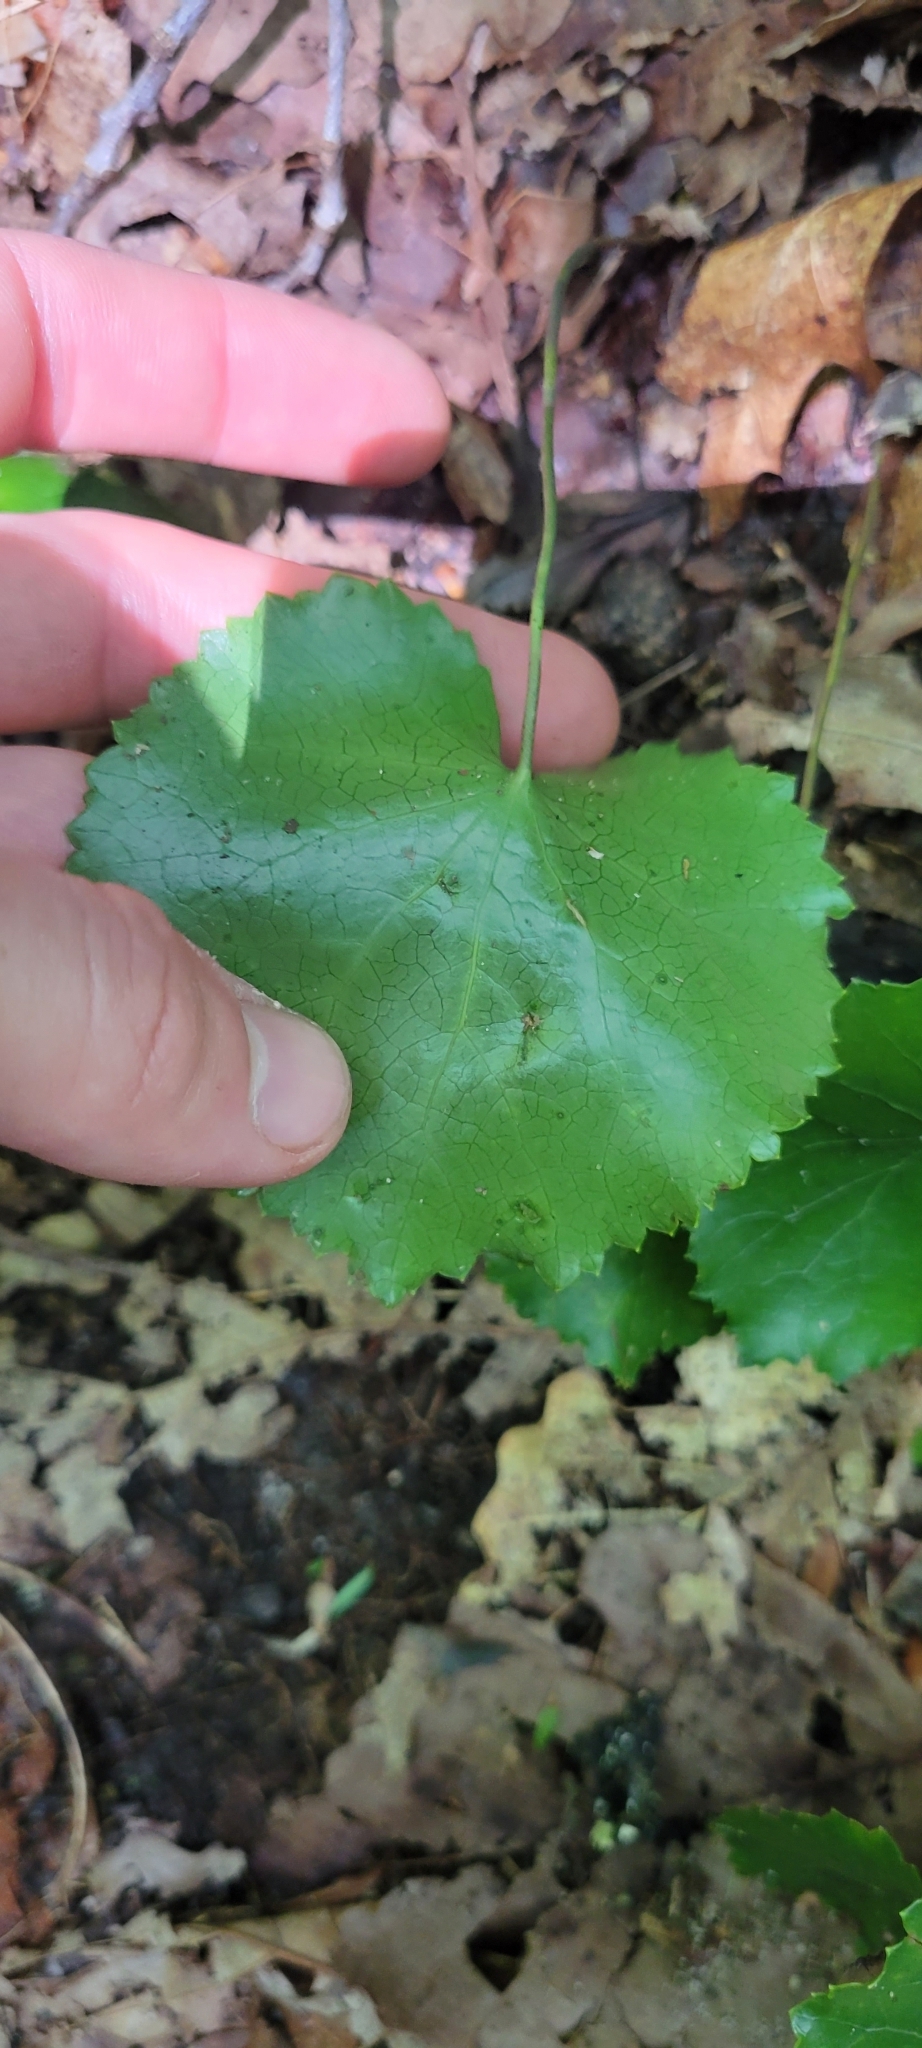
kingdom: Plantae
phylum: Tracheophyta
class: Magnoliopsida
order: Ericales
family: Diapensiaceae
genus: Galax
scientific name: Galax urceolata
